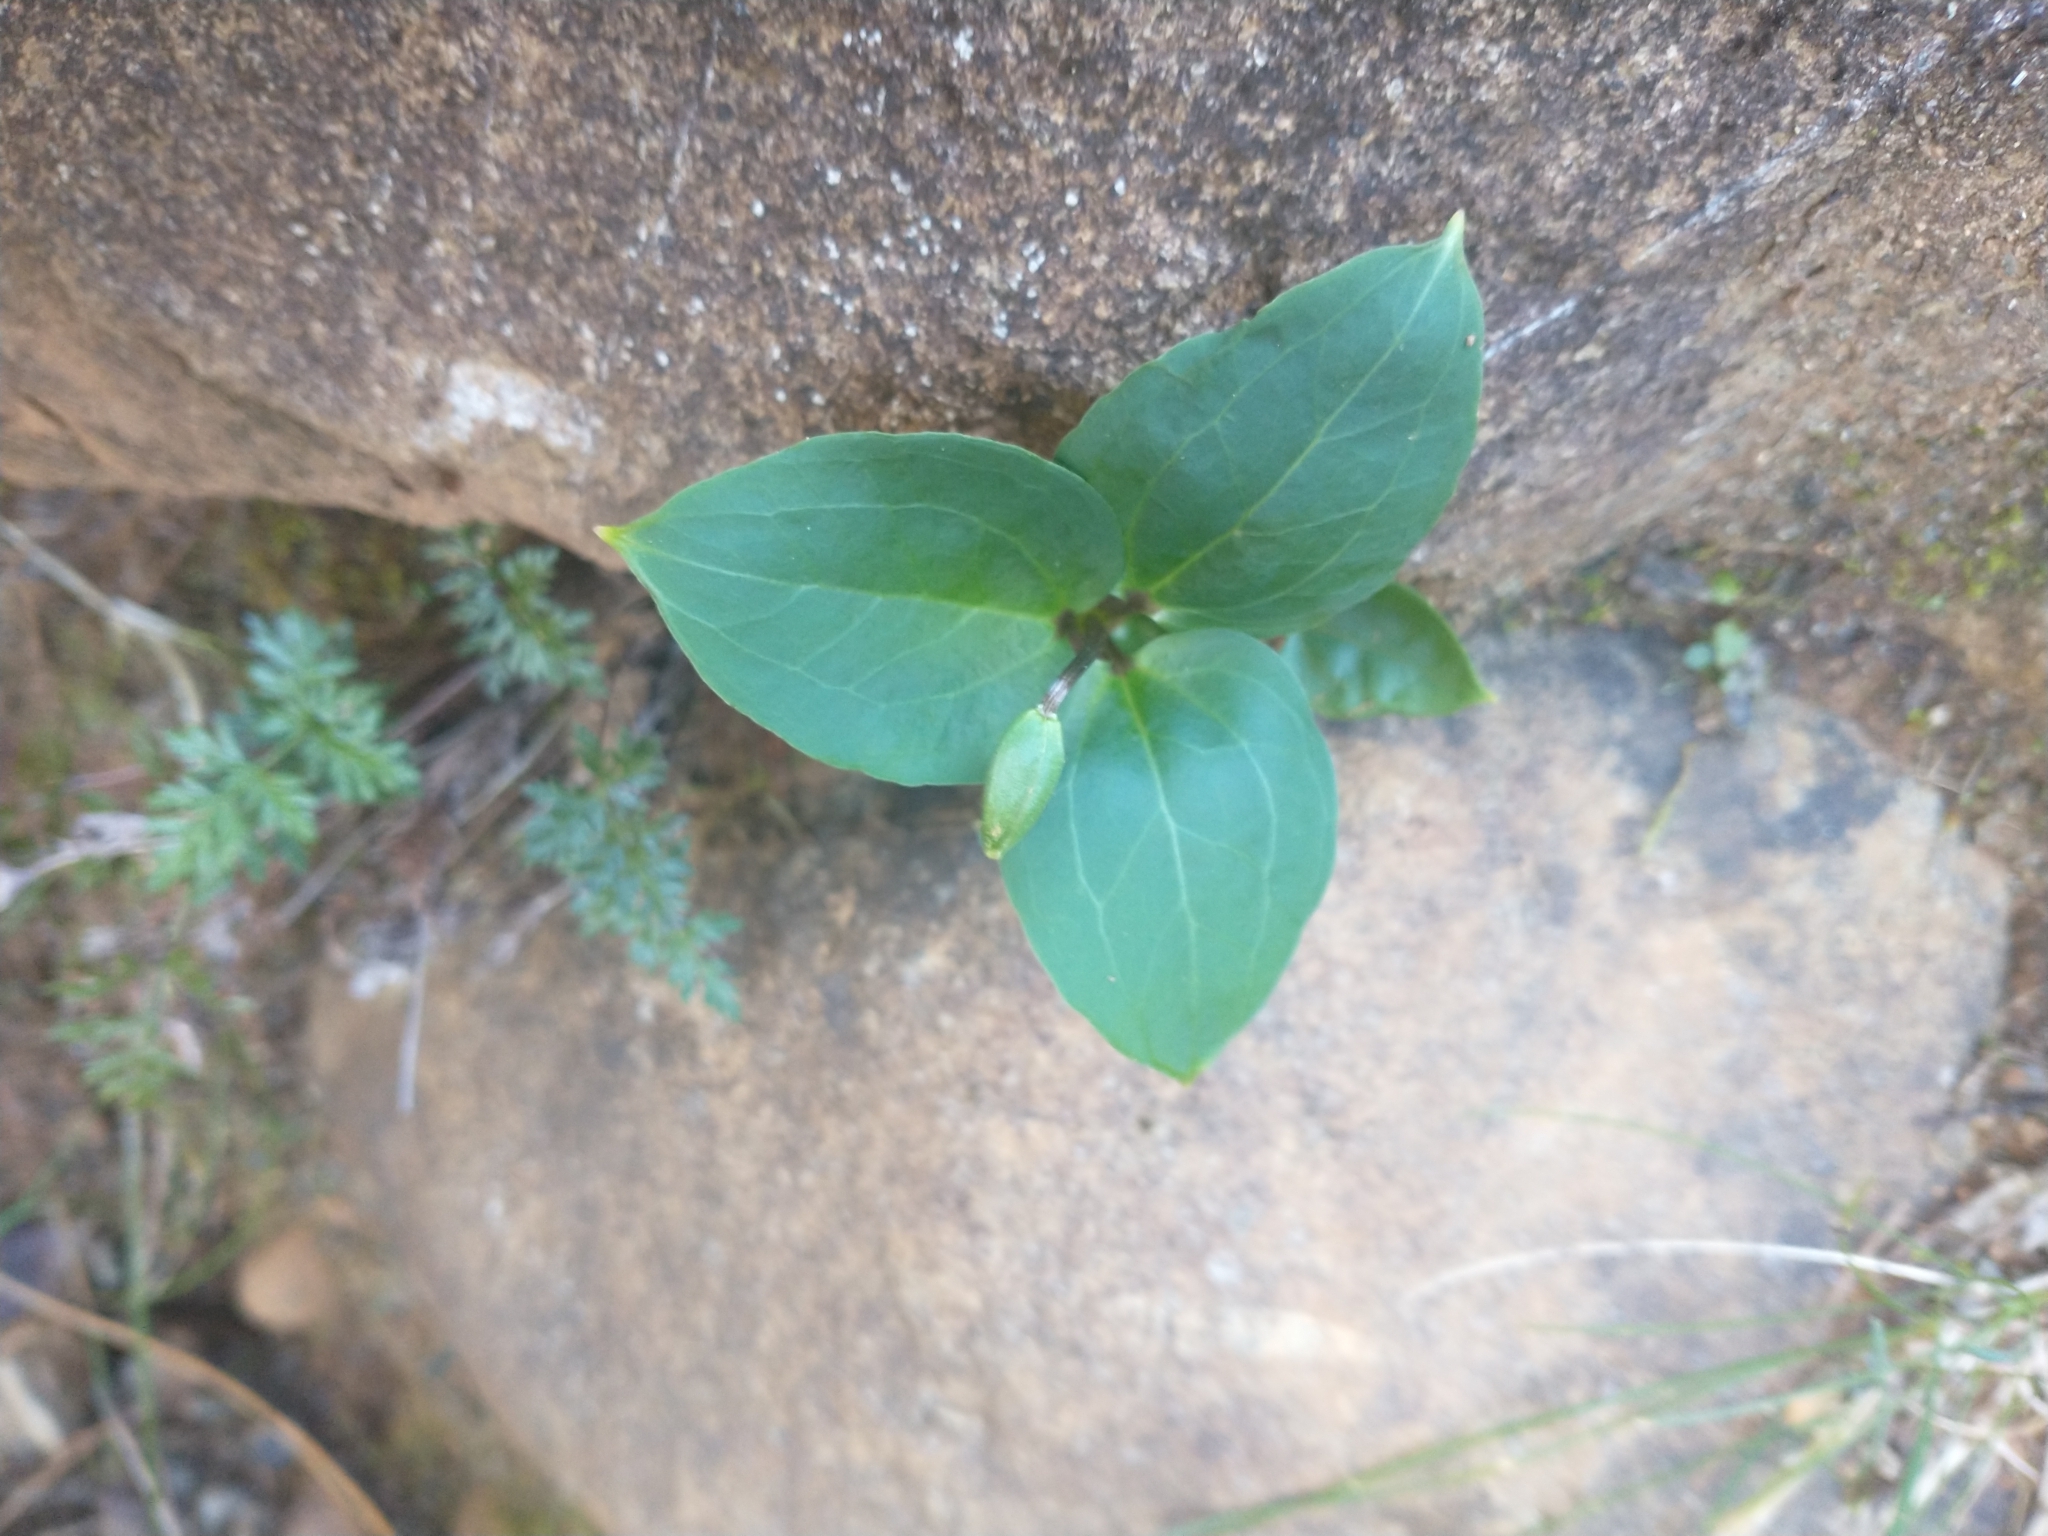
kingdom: Plantae
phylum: Tracheophyta
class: Liliopsida
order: Liliales
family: Melanthiaceae
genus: Pseudotrillium
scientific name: Pseudotrillium rivale
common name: Brook wakerobin
